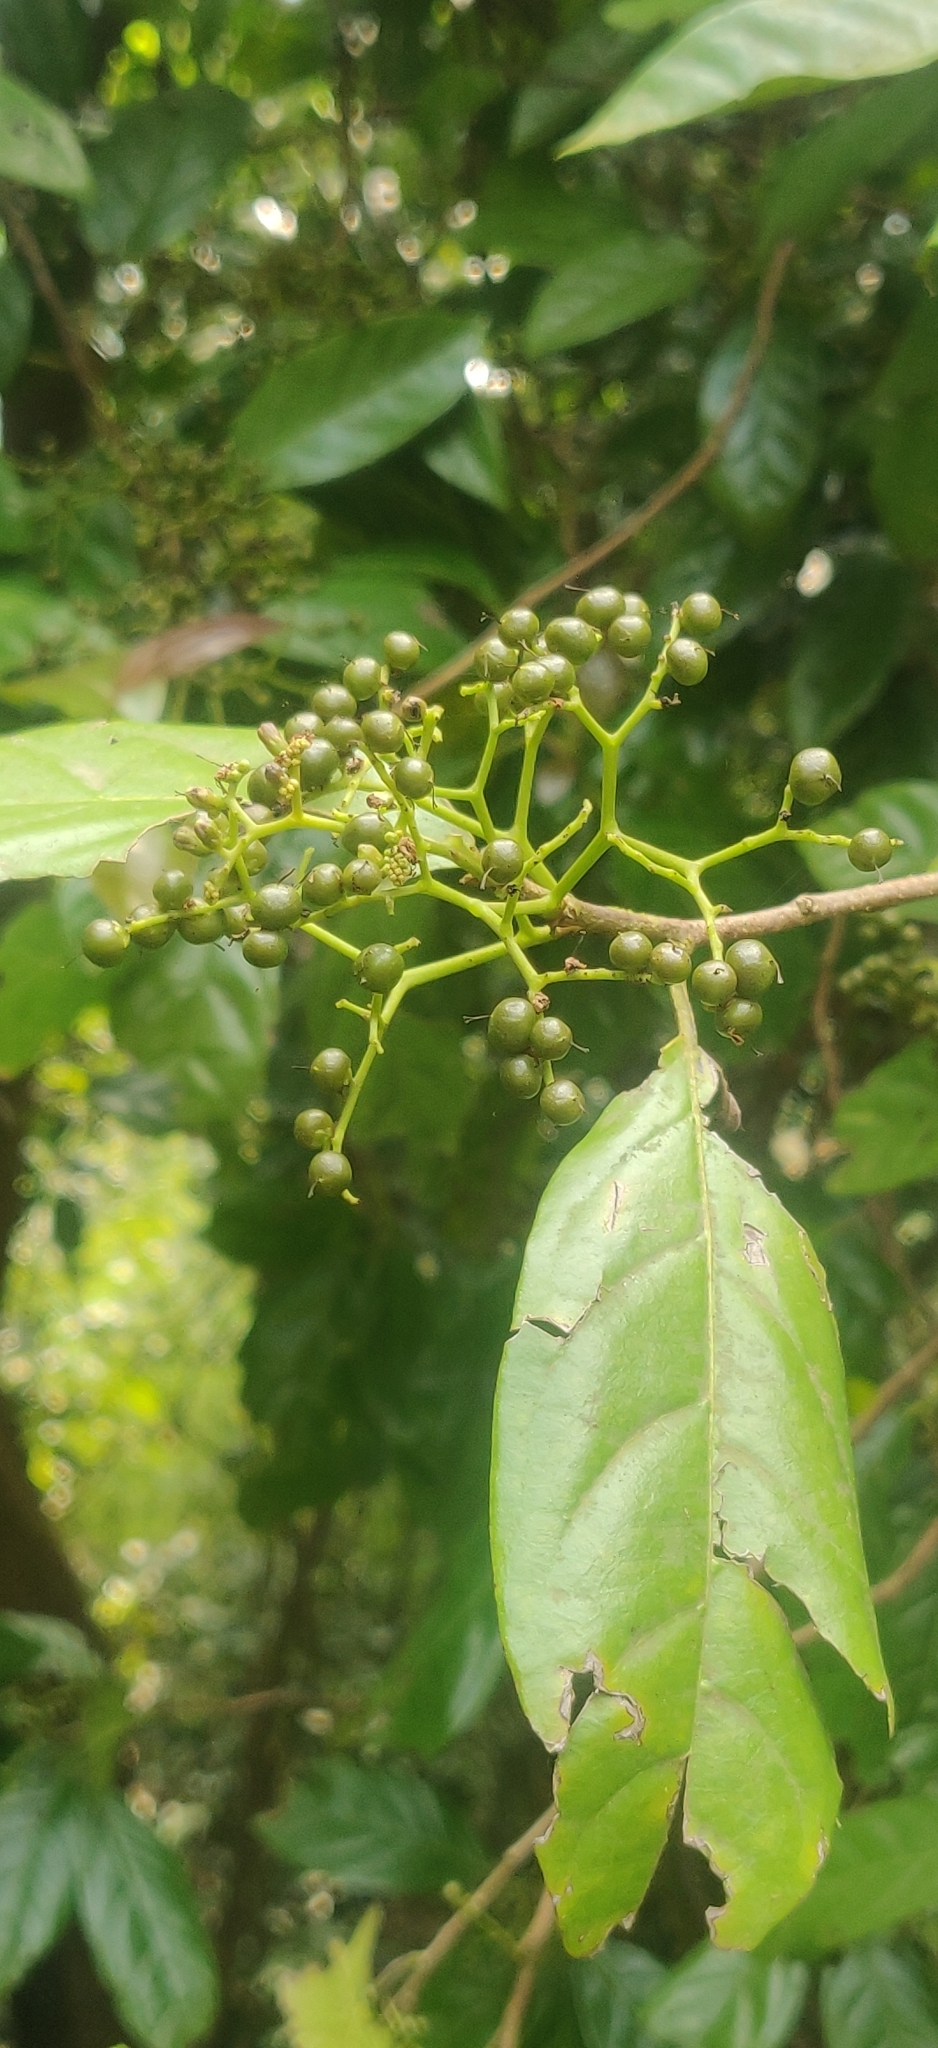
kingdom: Plantae
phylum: Tracheophyta
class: Magnoliopsida
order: Boraginales
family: Ehretiaceae
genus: Ehretia
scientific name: Ehretia laevis
